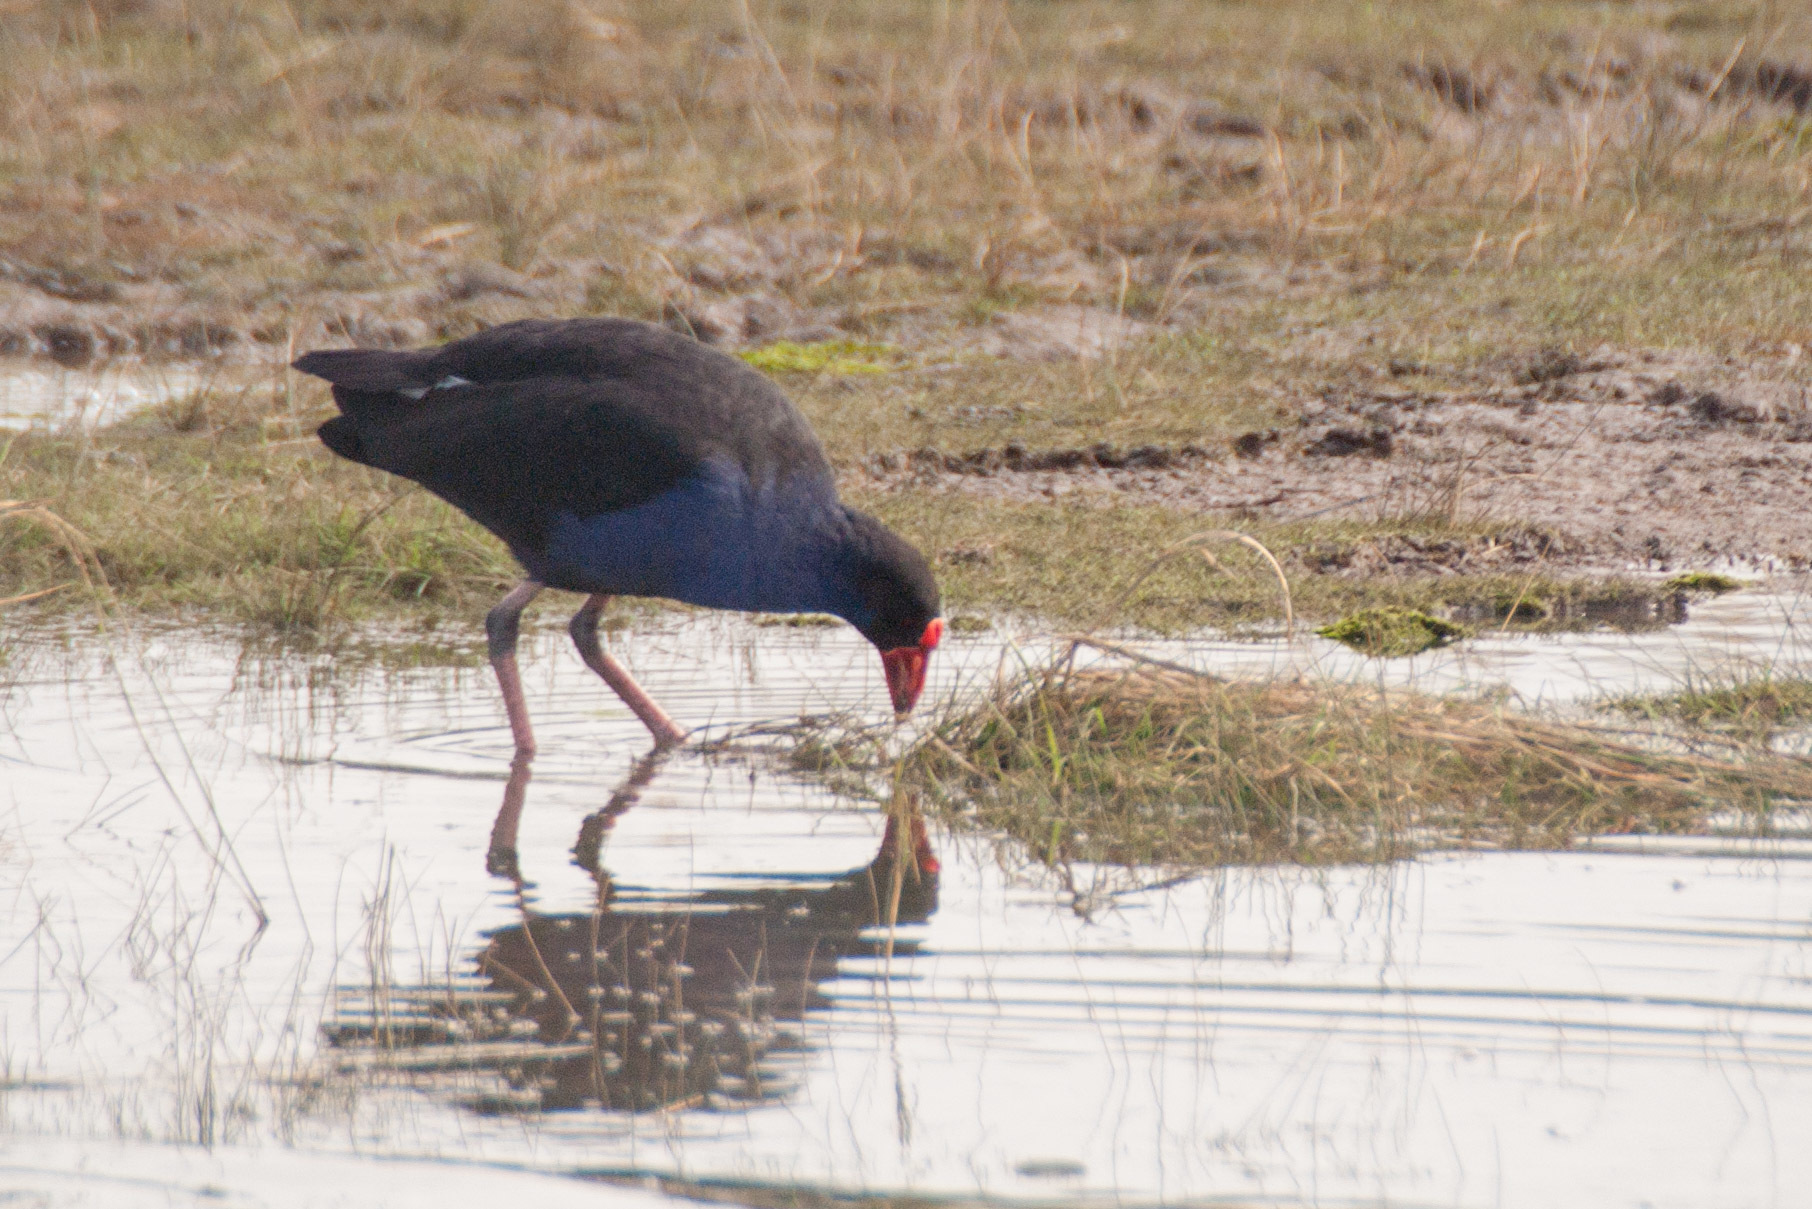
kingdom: Animalia
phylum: Chordata
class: Aves
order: Gruiformes
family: Rallidae
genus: Porphyrio
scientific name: Porphyrio melanotus
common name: Australasian swamphen
